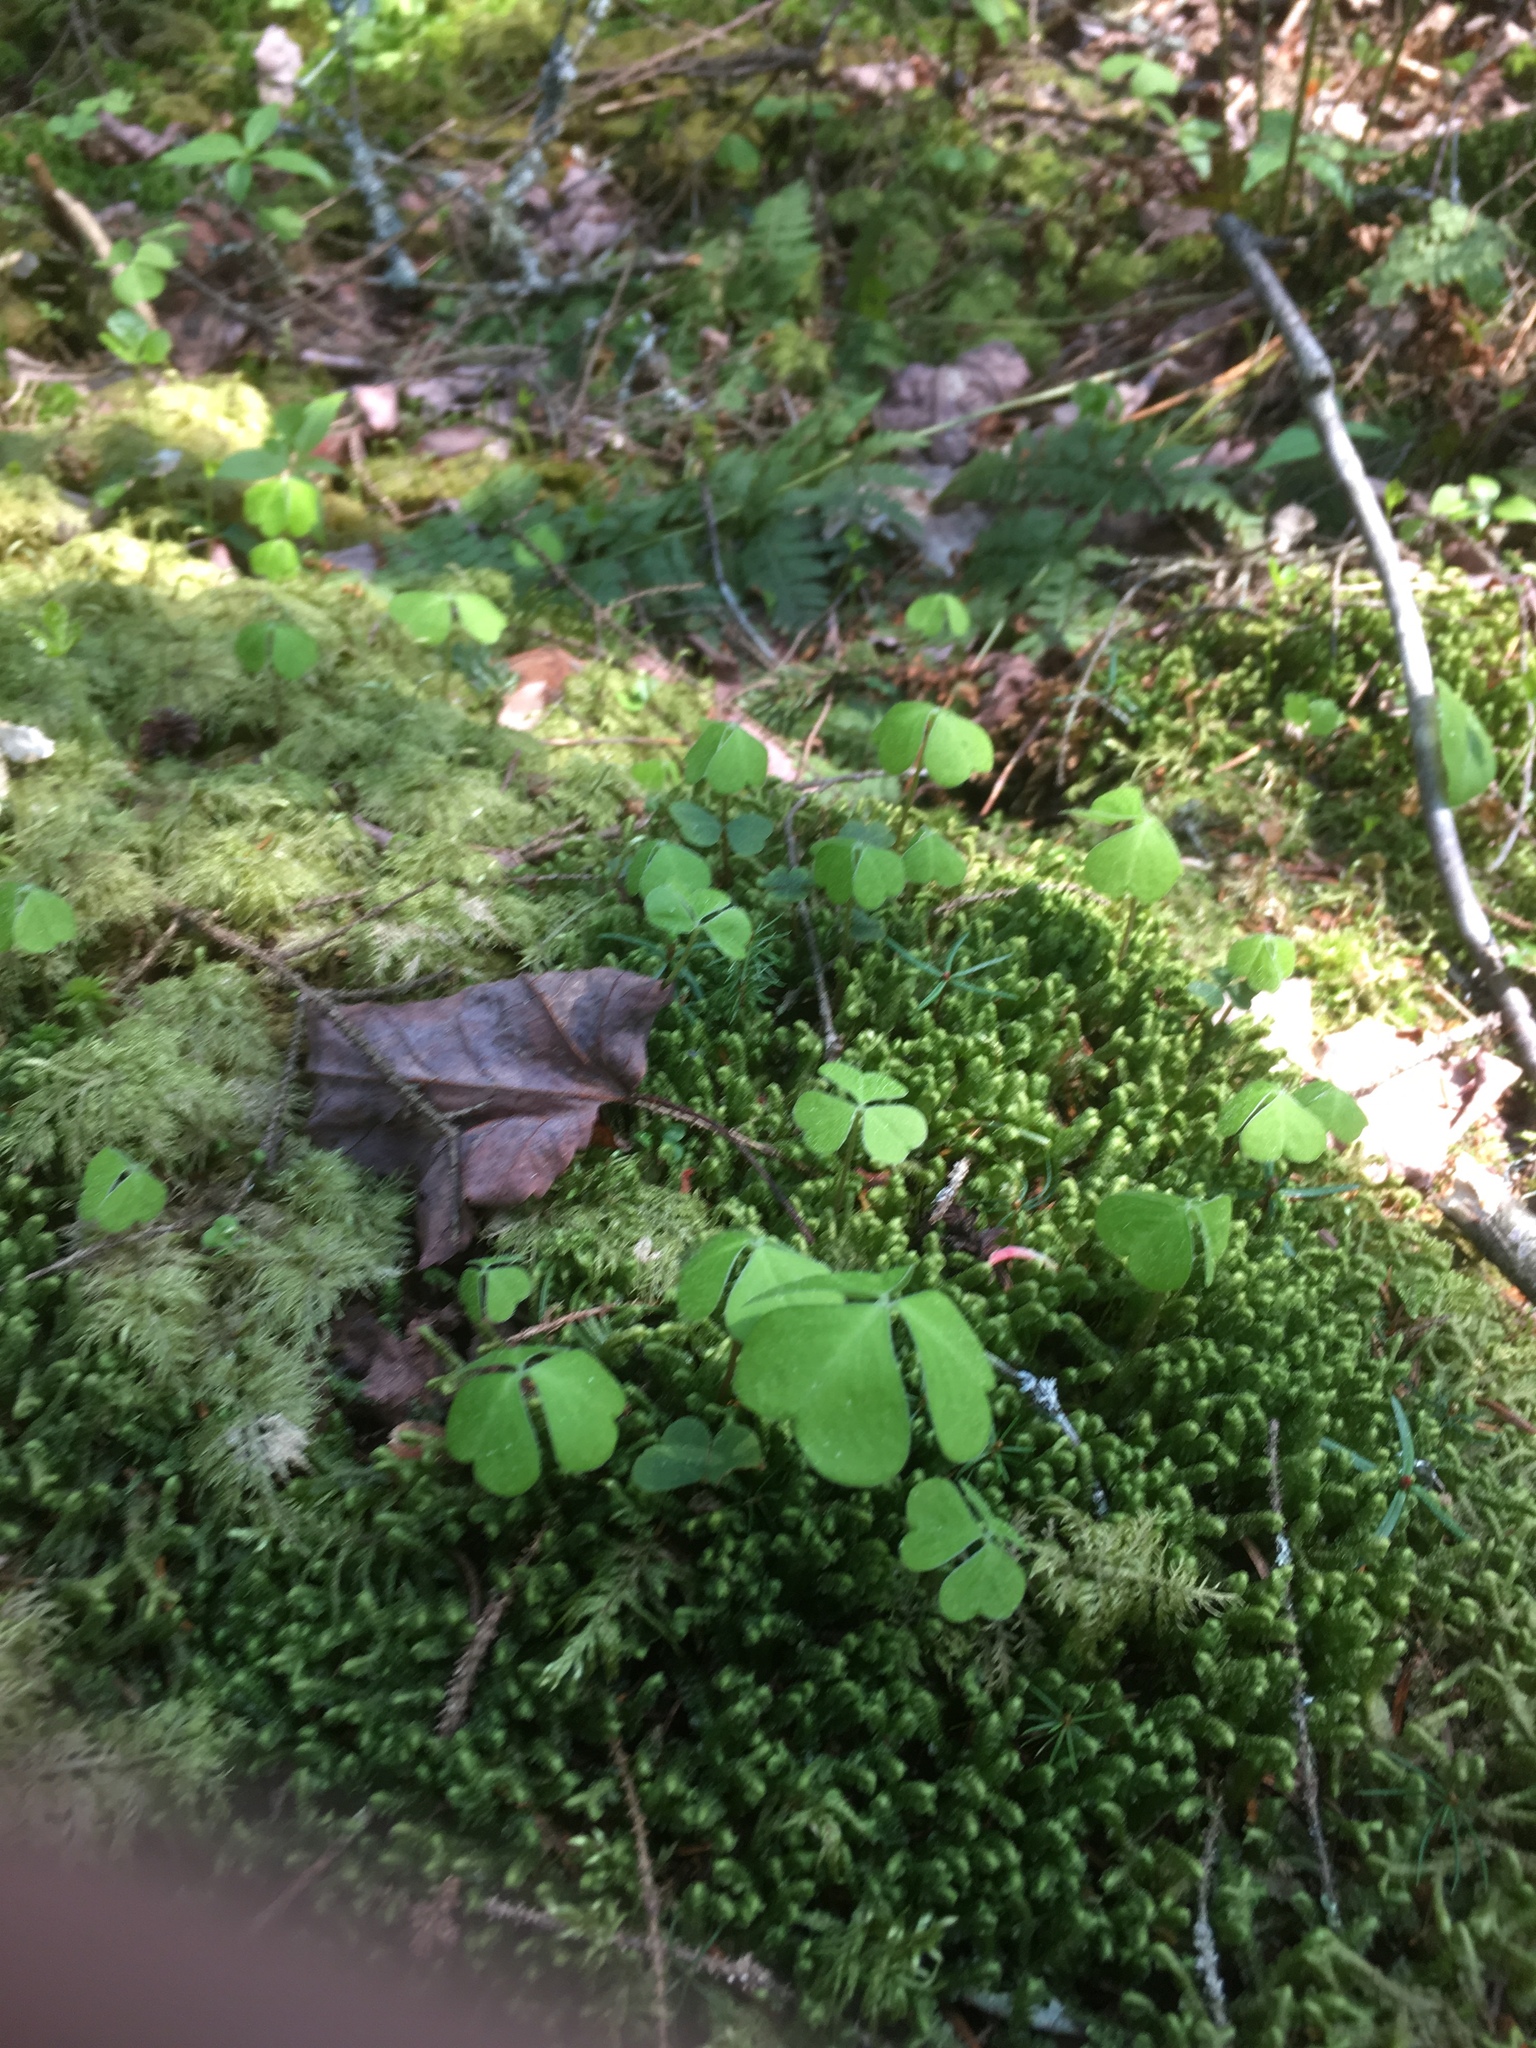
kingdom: Plantae
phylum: Tracheophyta
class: Magnoliopsida
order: Oxalidales
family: Oxalidaceae
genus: Oxalis
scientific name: Oxalis montana
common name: American wood-sorrel
